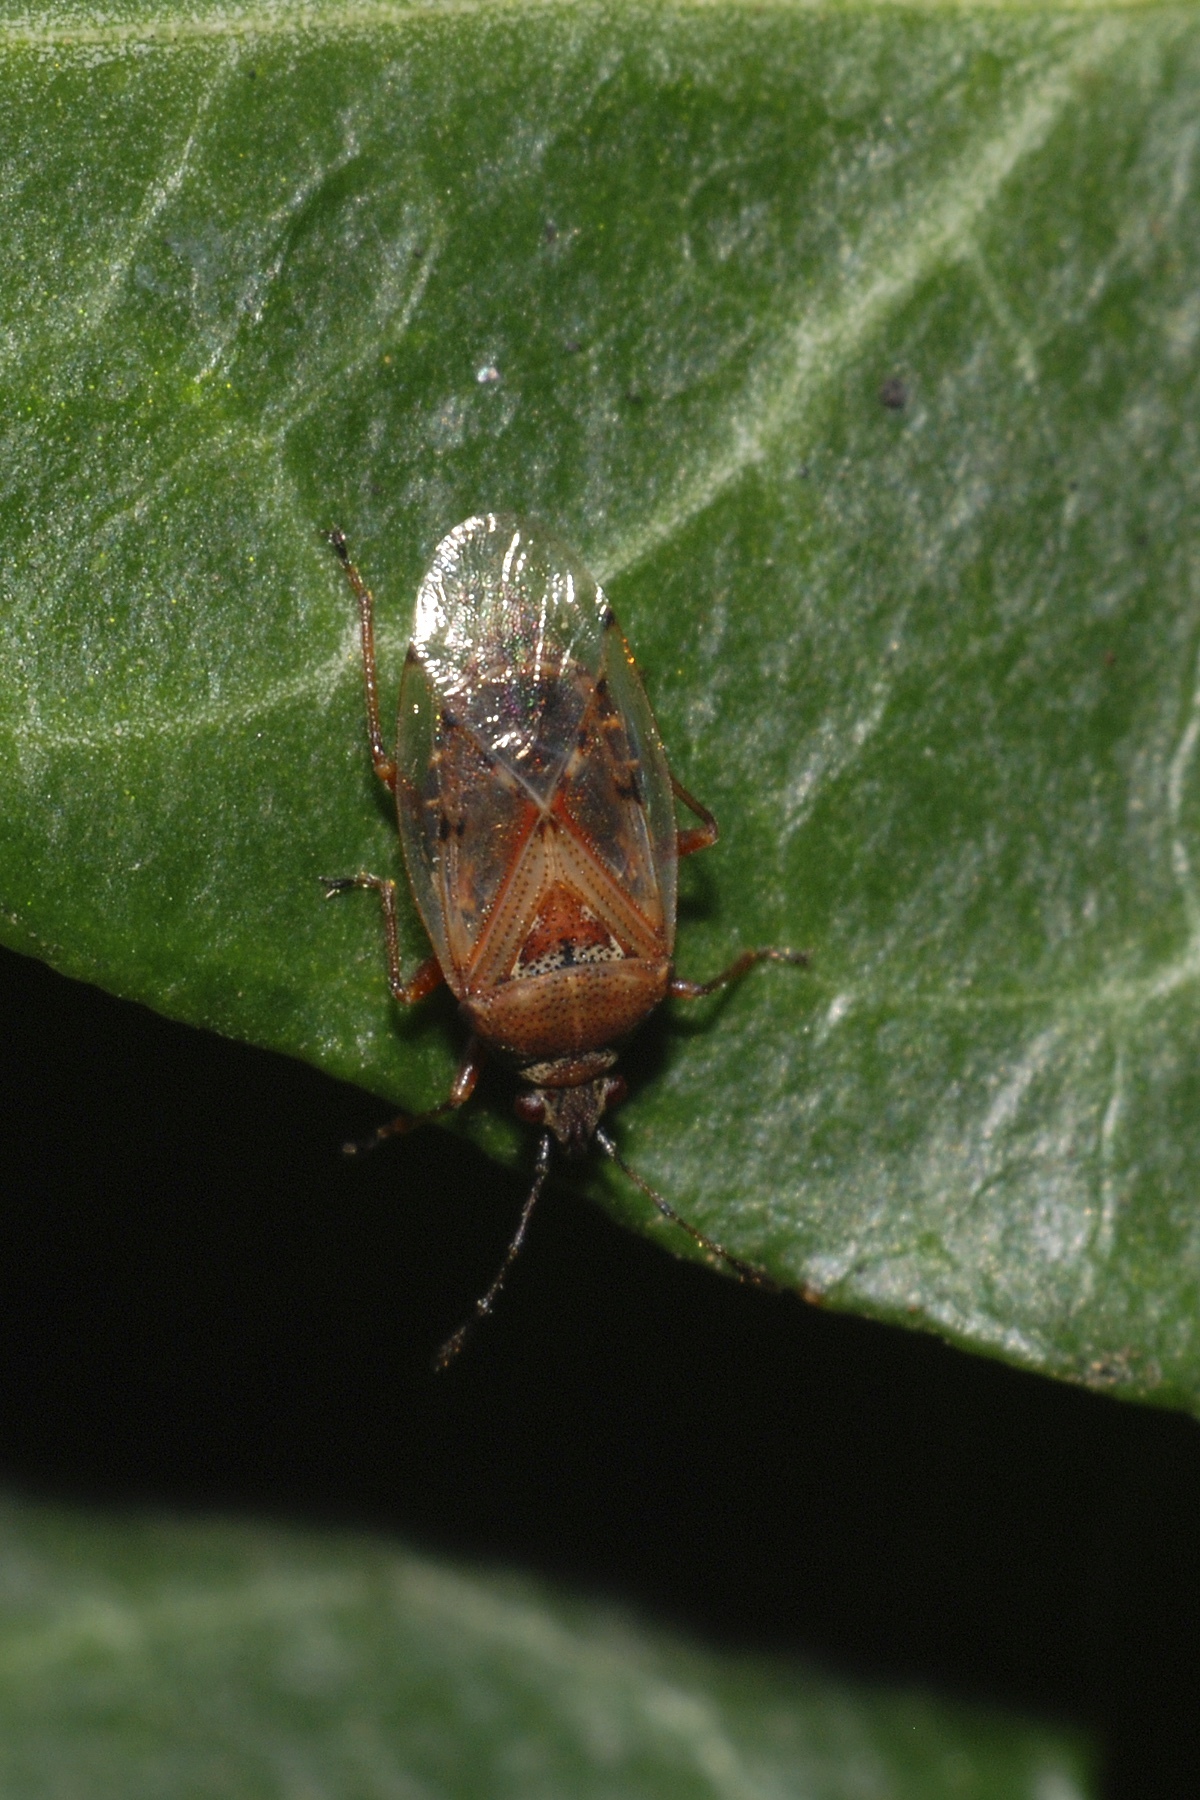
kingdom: Animalia
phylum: Arthropoda
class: Insecta
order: Hemiptera
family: Lygaeidae
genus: Kleidocerys
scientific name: Kleidocerys resedae
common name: Birch catkin bug
